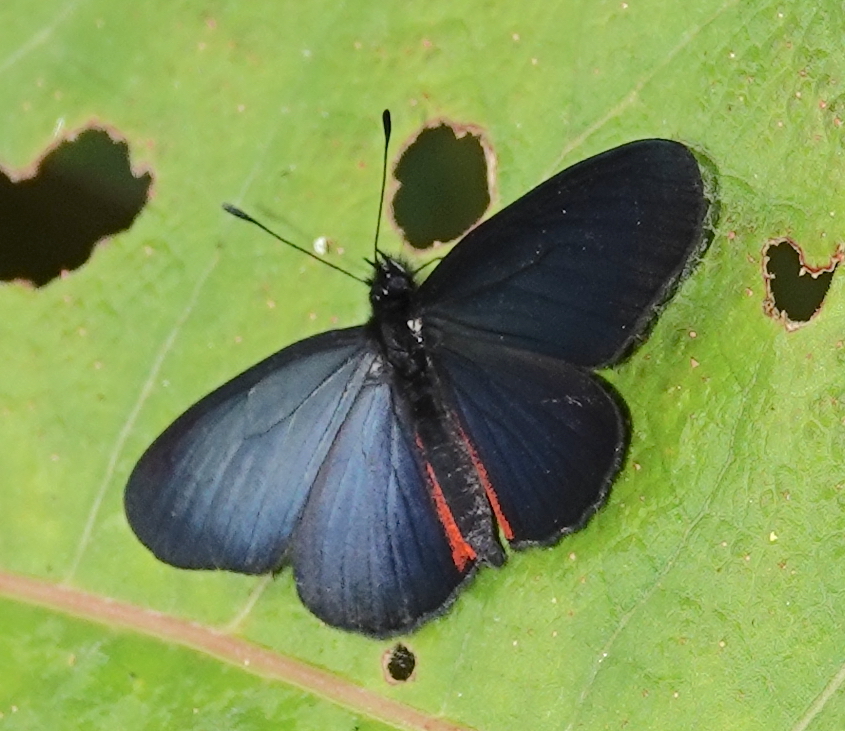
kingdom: Animalia
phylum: Arthropoda
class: Insecta
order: Lepidoptera
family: Nymphalidae
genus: Gnathotriche
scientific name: Gnathotriche mundina
